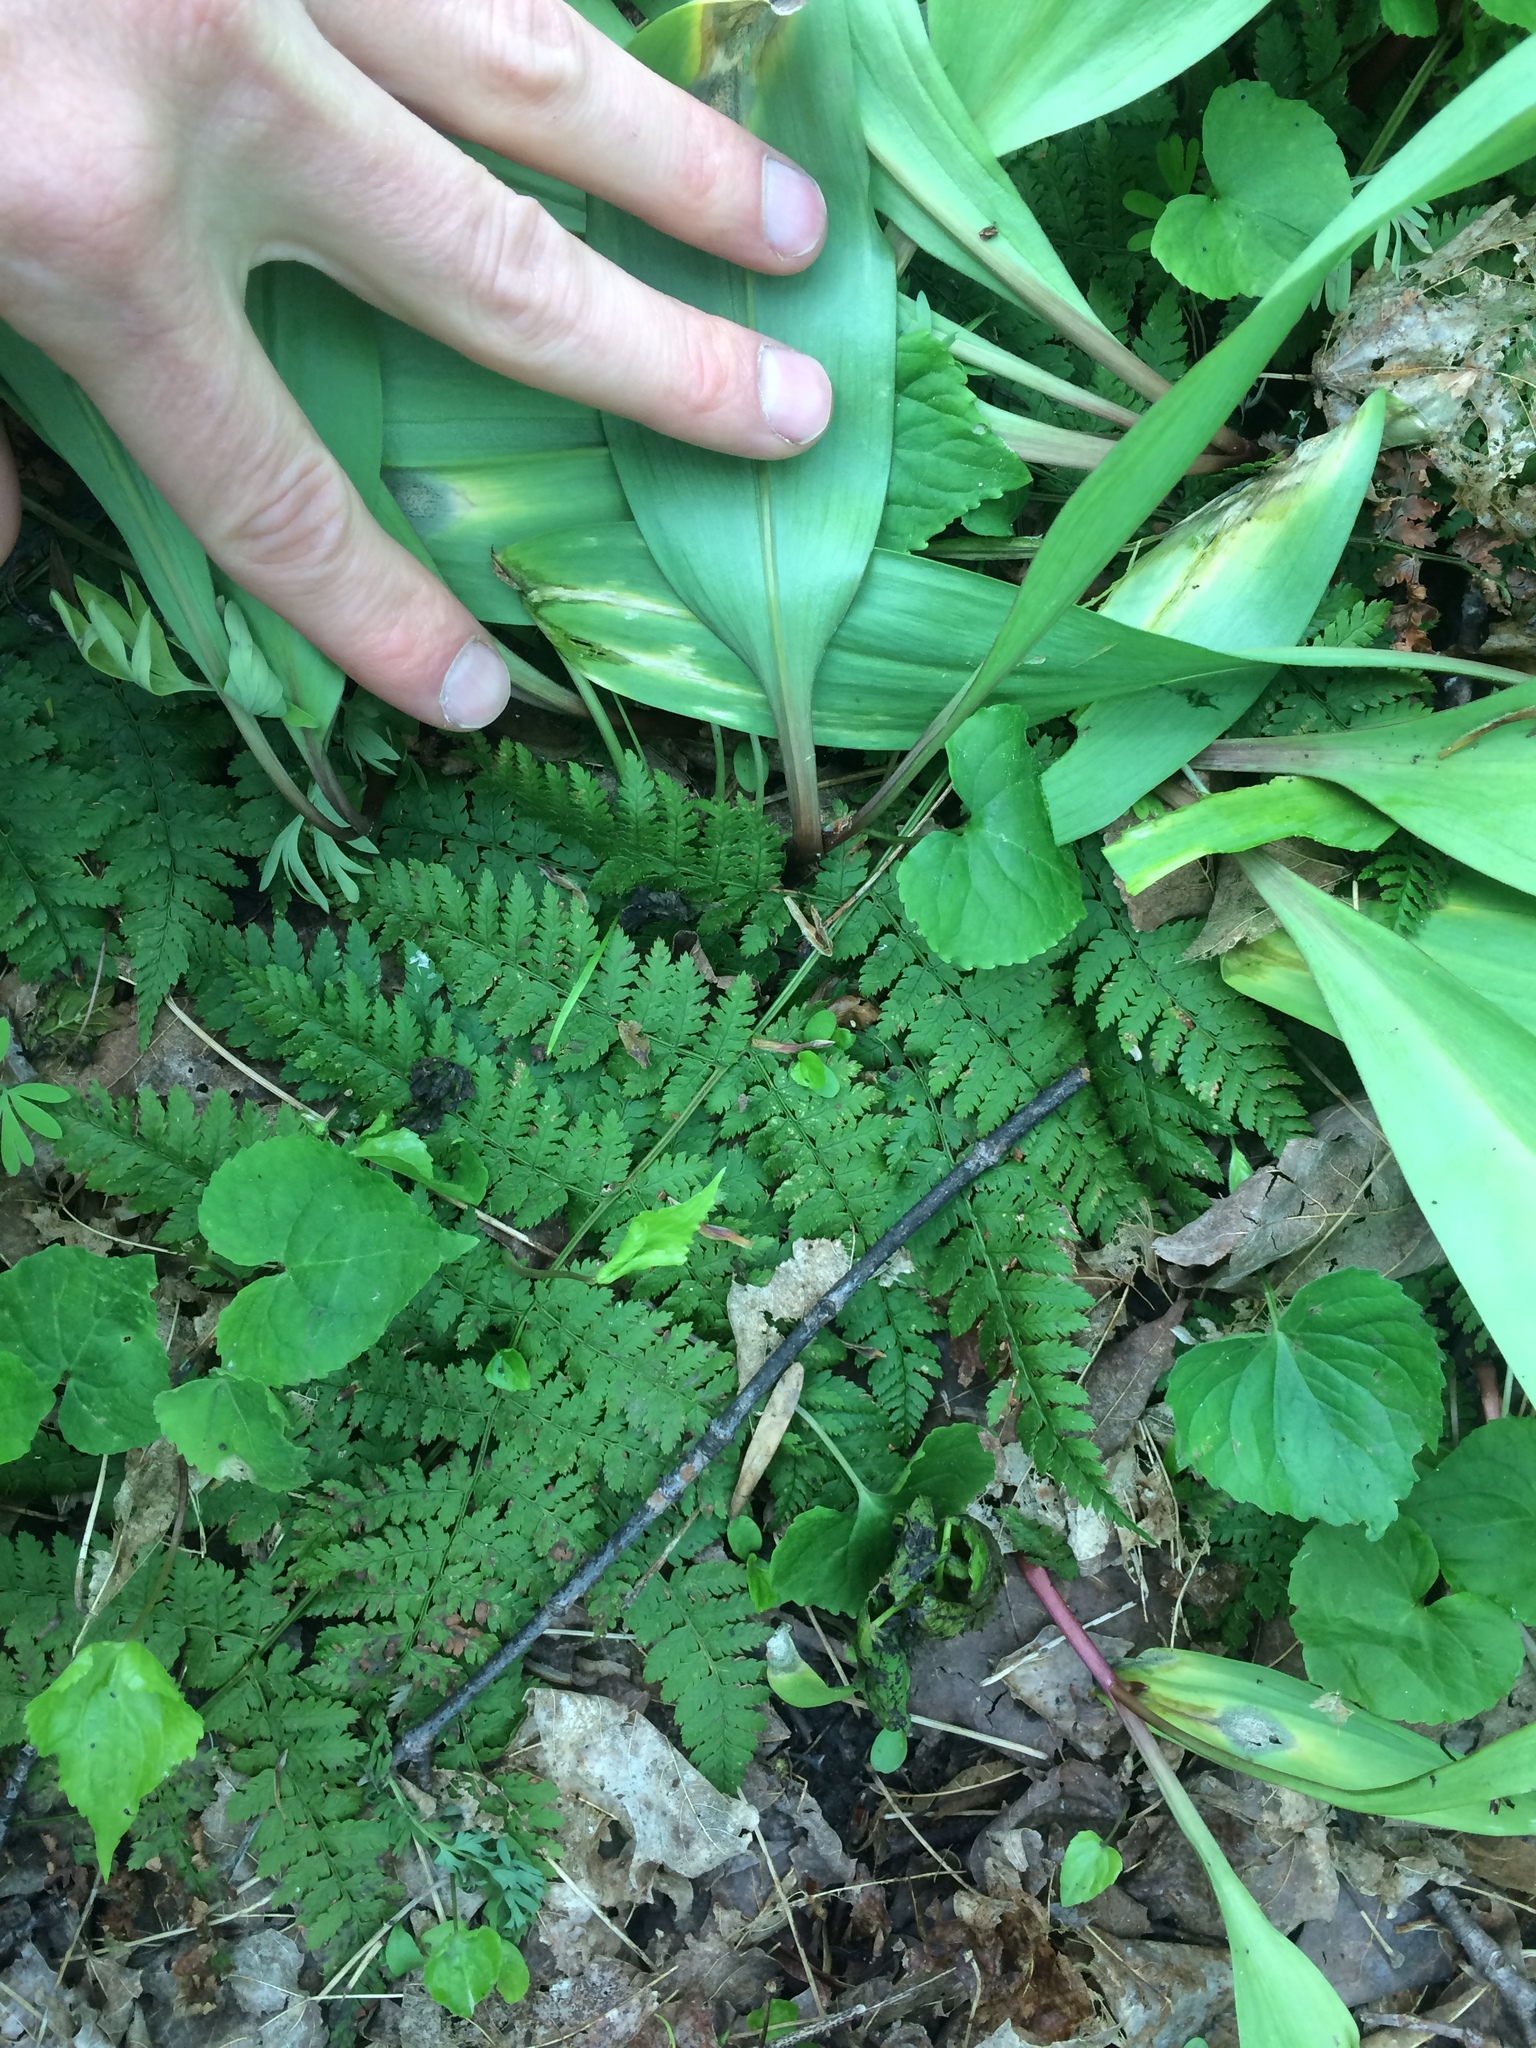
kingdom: Plantae
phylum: Tracheophyta
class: Polypodiopsida
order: Polypodiales
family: Dryopteridaceae
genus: Dryopteris
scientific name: Dryopteris intermedia
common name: Evergreen wood fern
